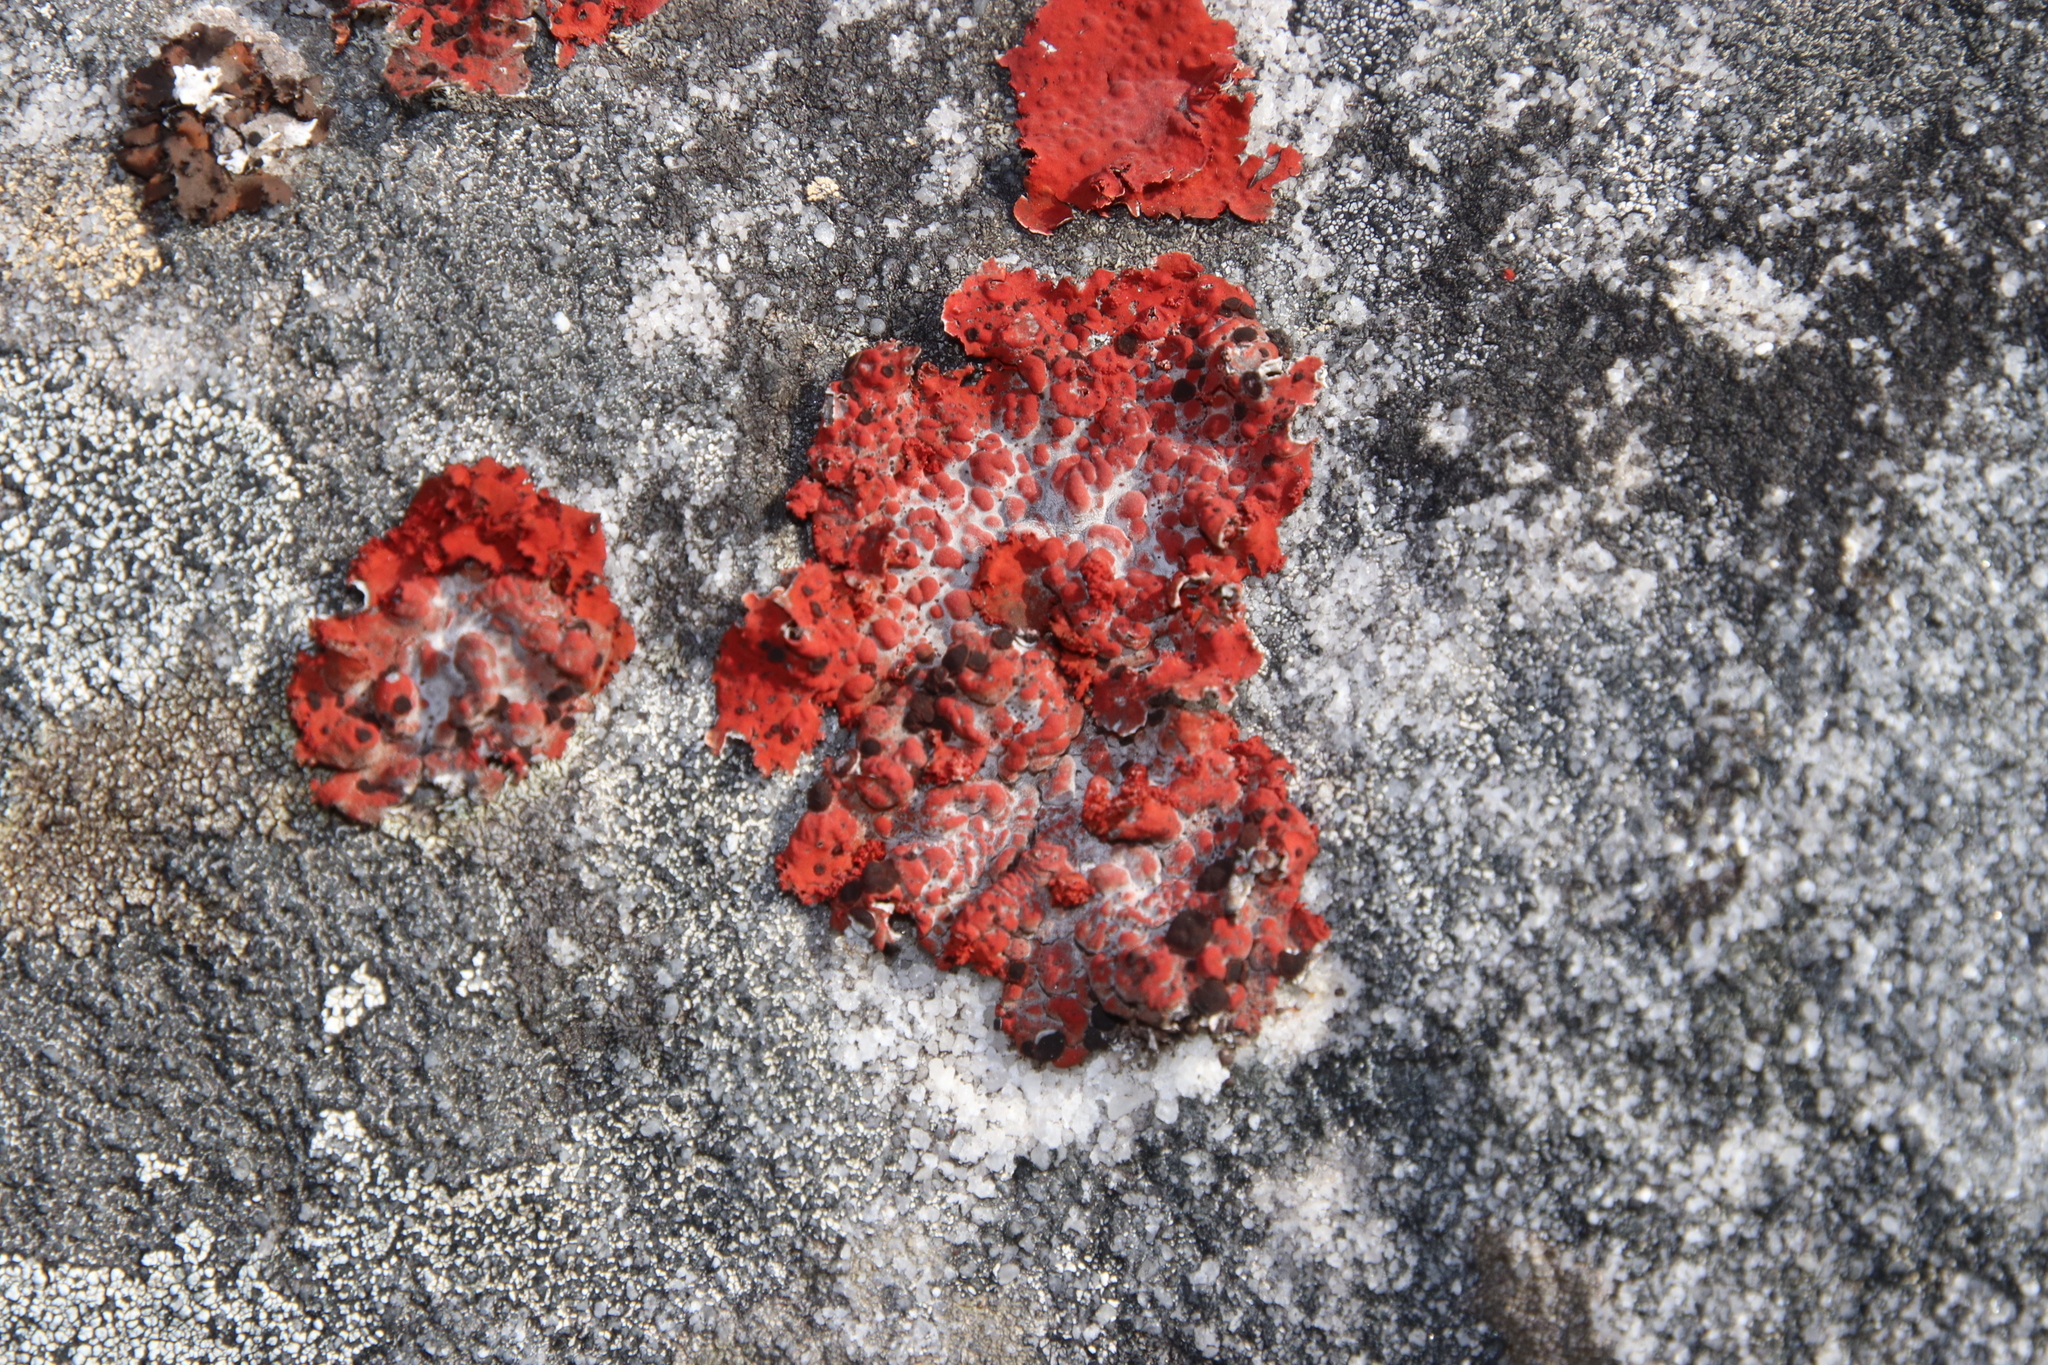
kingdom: Fungi
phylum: Ascomycota
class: Lecanoromycetes
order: Umbilicariales
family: Umbilicariaceae
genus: Lasallia
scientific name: Lasallia rubiginosa
